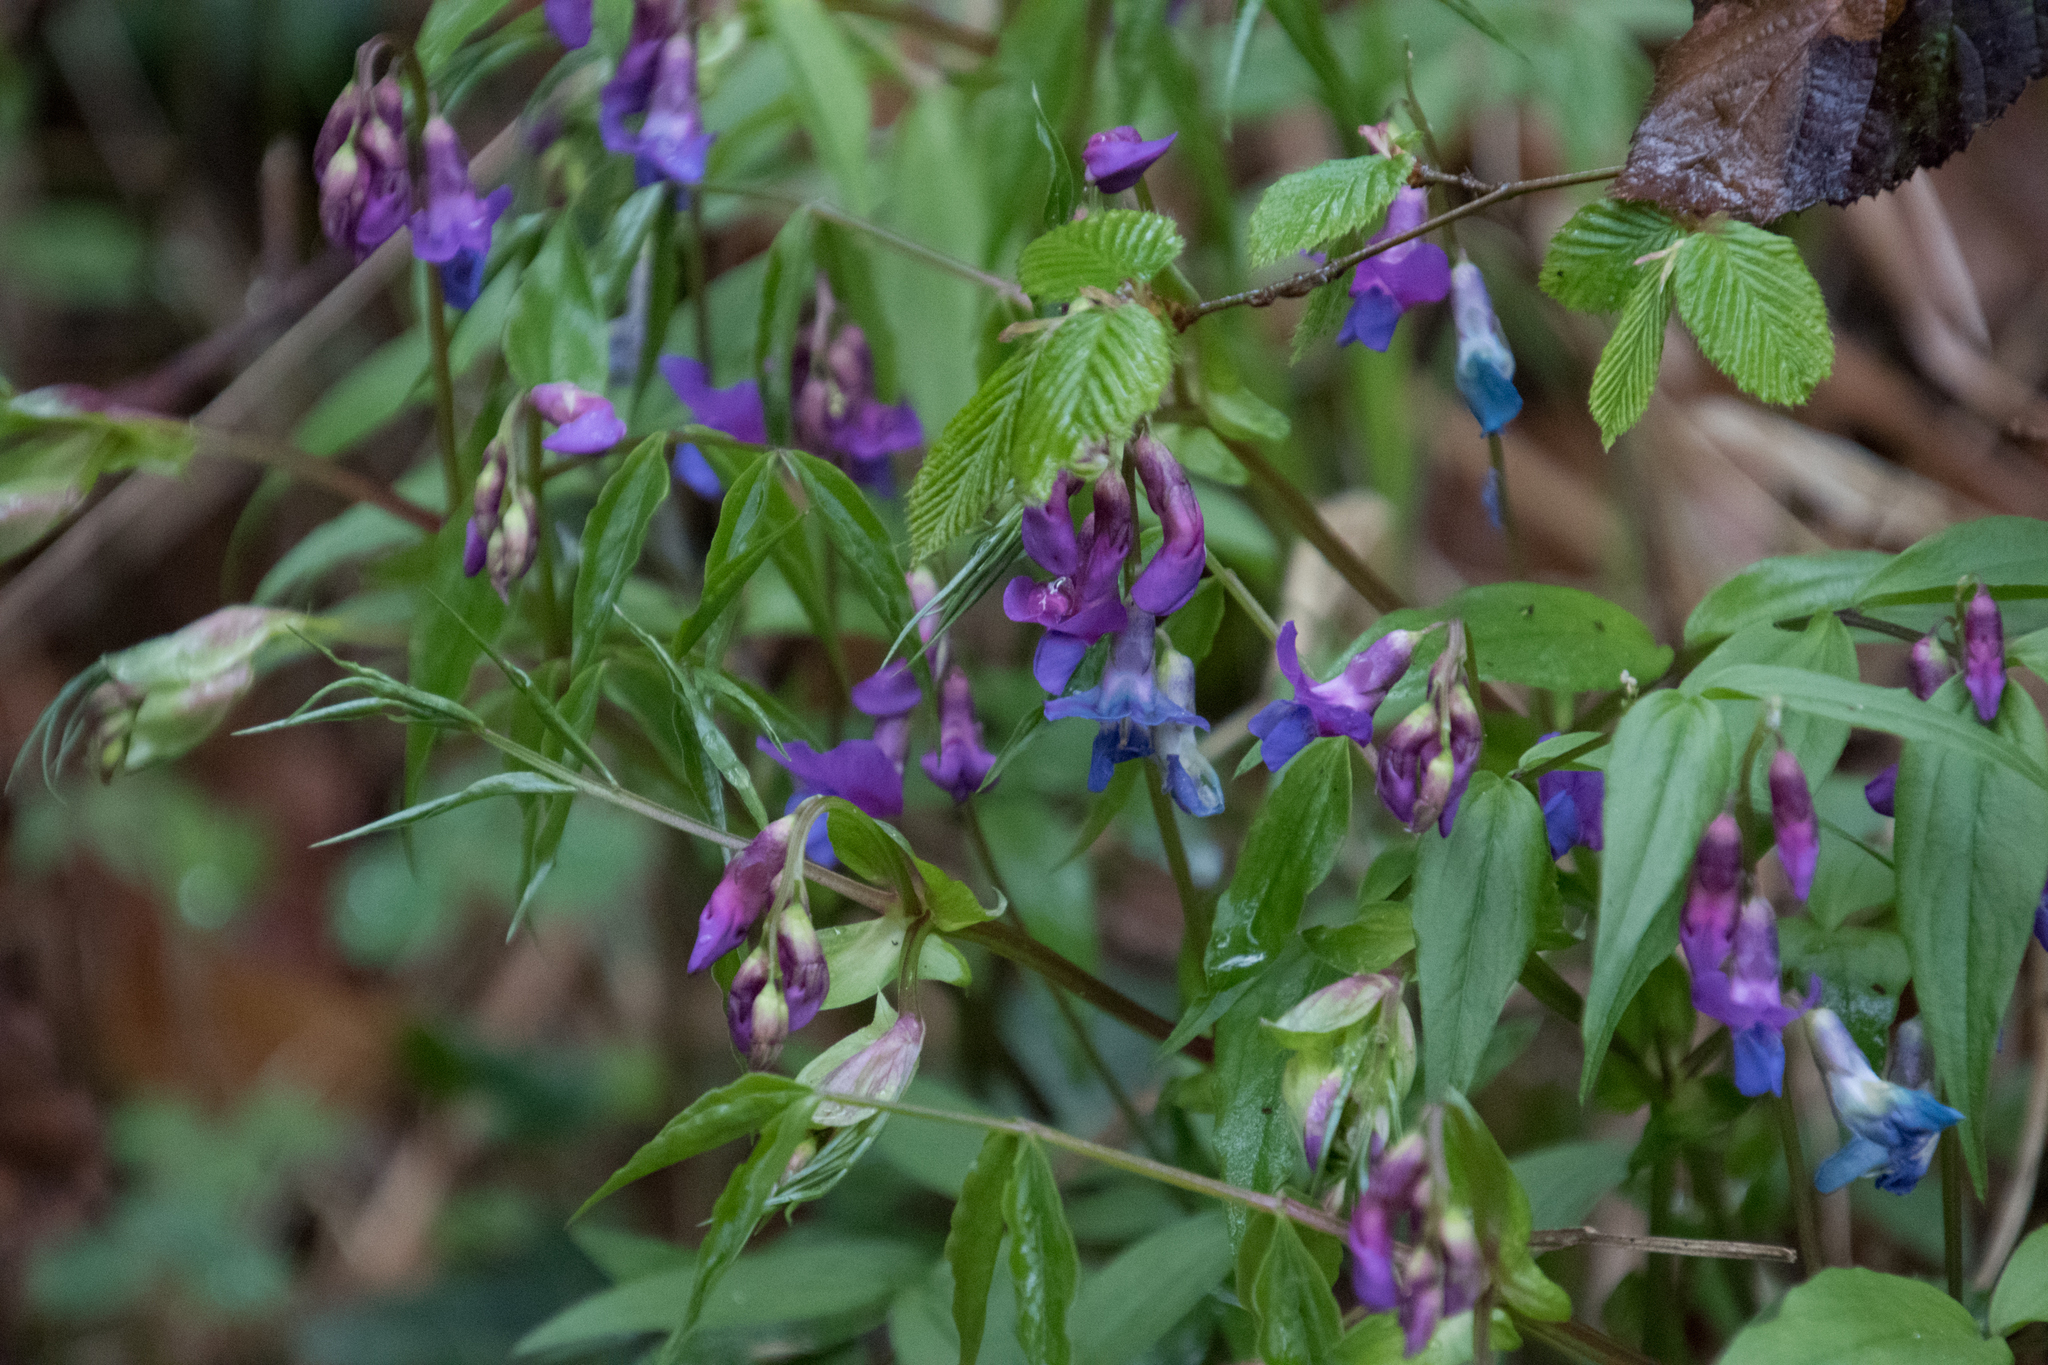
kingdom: Plantae
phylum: Tracheophyta
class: Magnoliopsida
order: Fabales
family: Fabaceae
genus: Lathyrus
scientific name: Lathyrus vernus
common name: Spring pea
